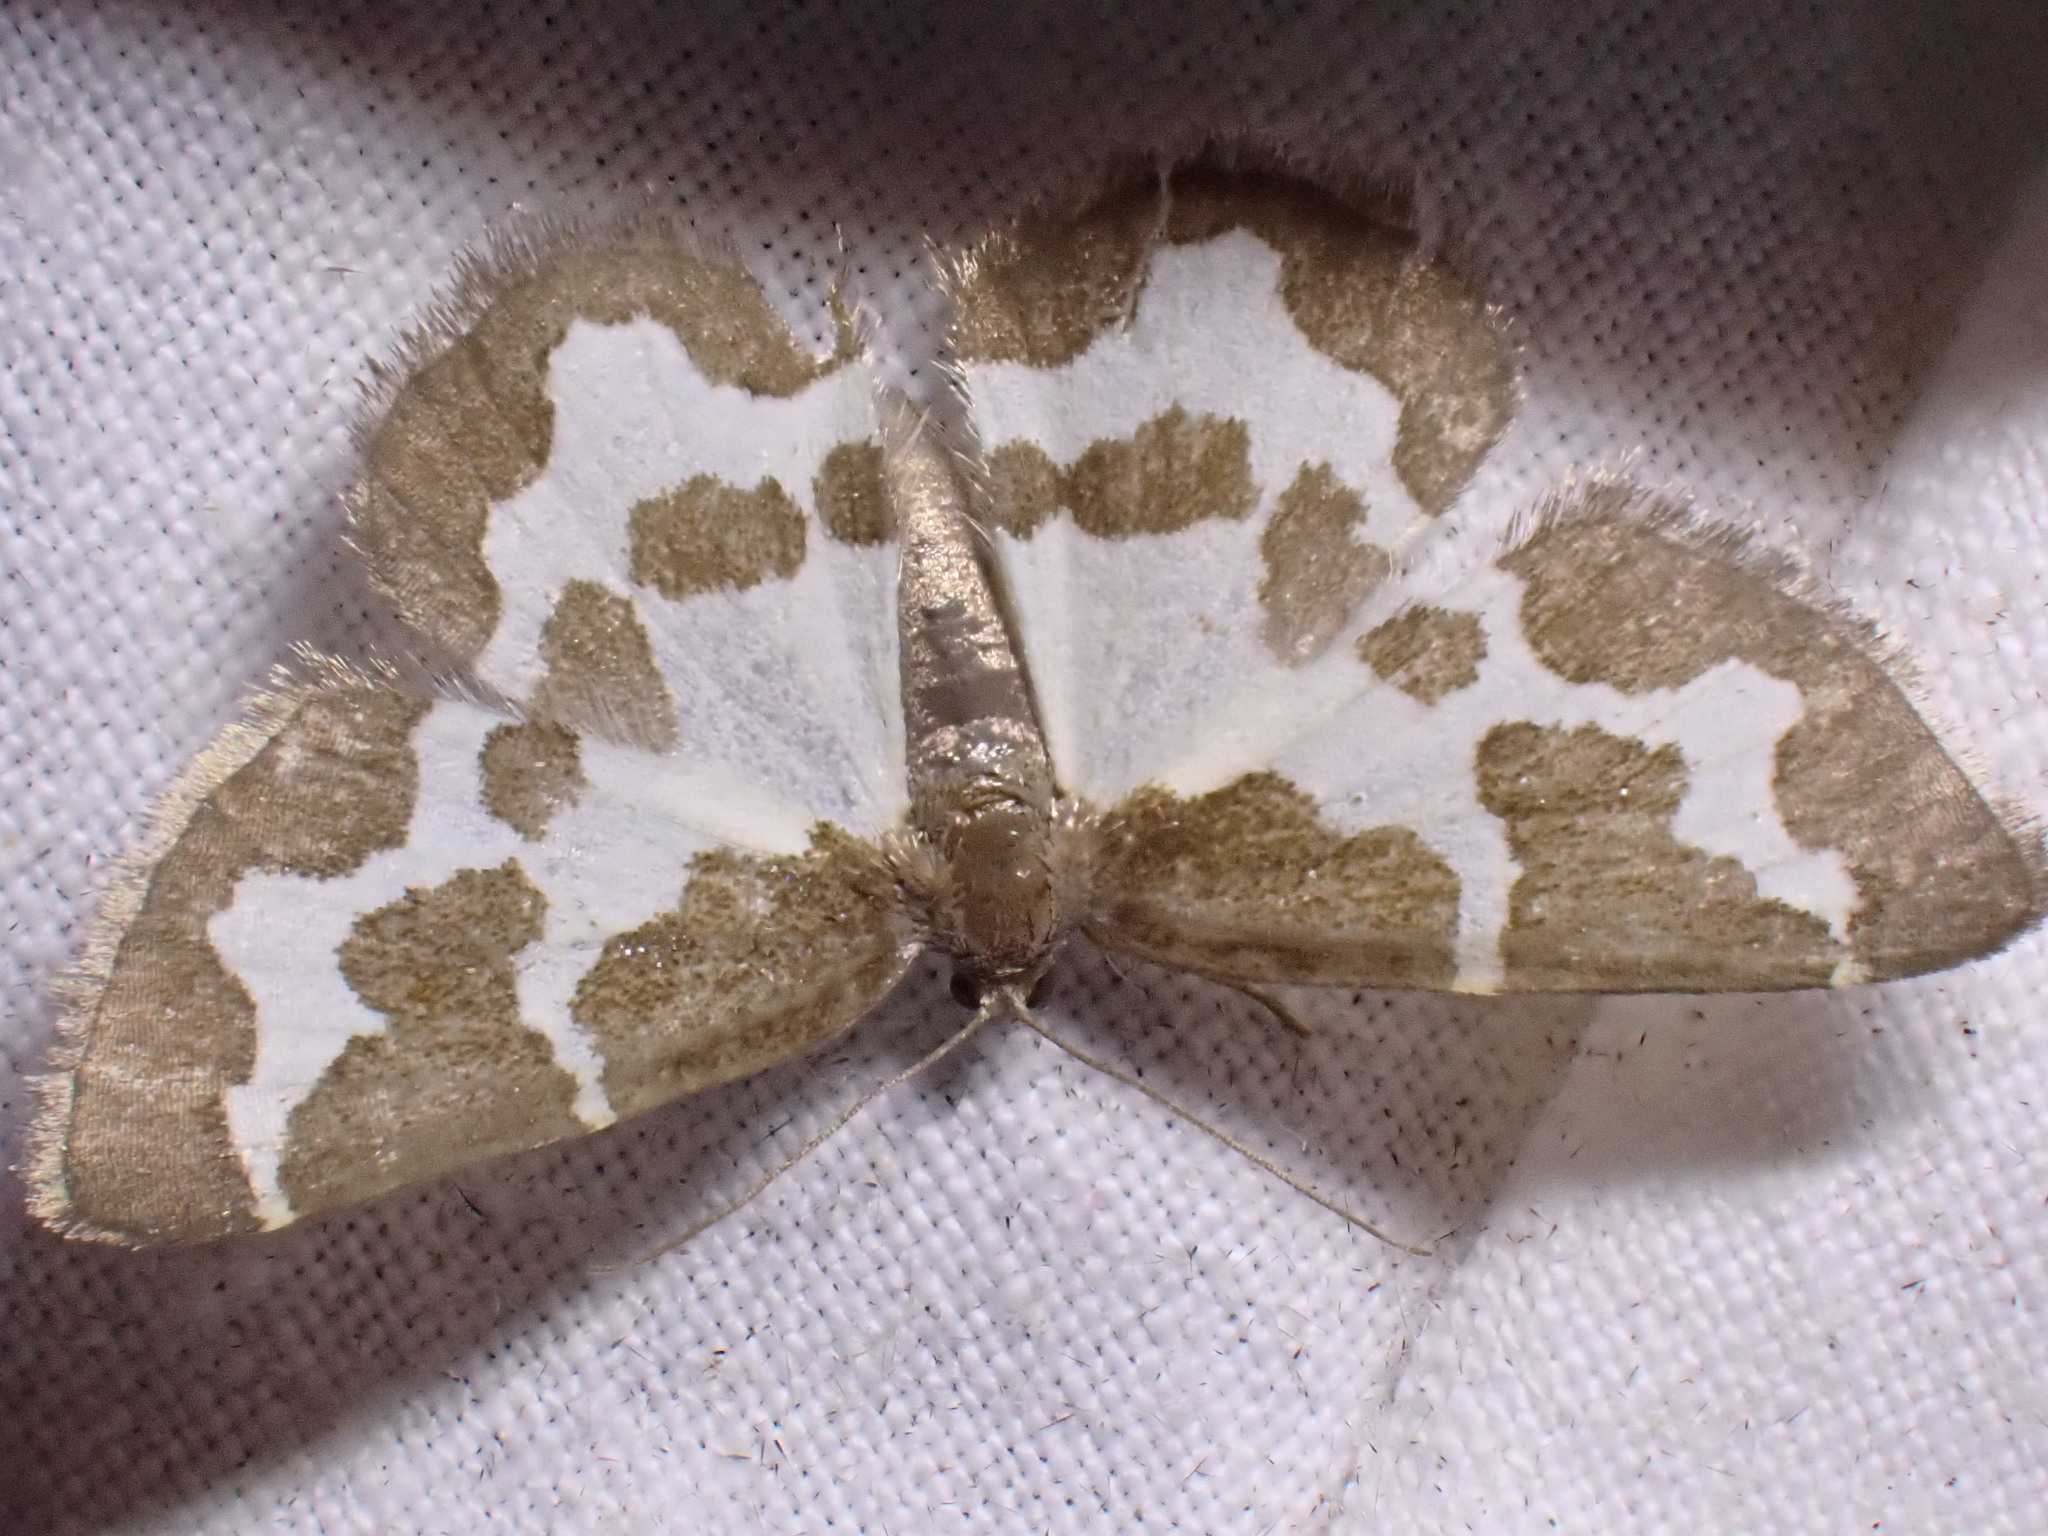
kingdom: Animalia
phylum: Arthropoda
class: Insecta
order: Lepidoptera
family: Geometridae
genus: Lomaspilis
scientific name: Lomaspilis marginata
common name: Clouded border
